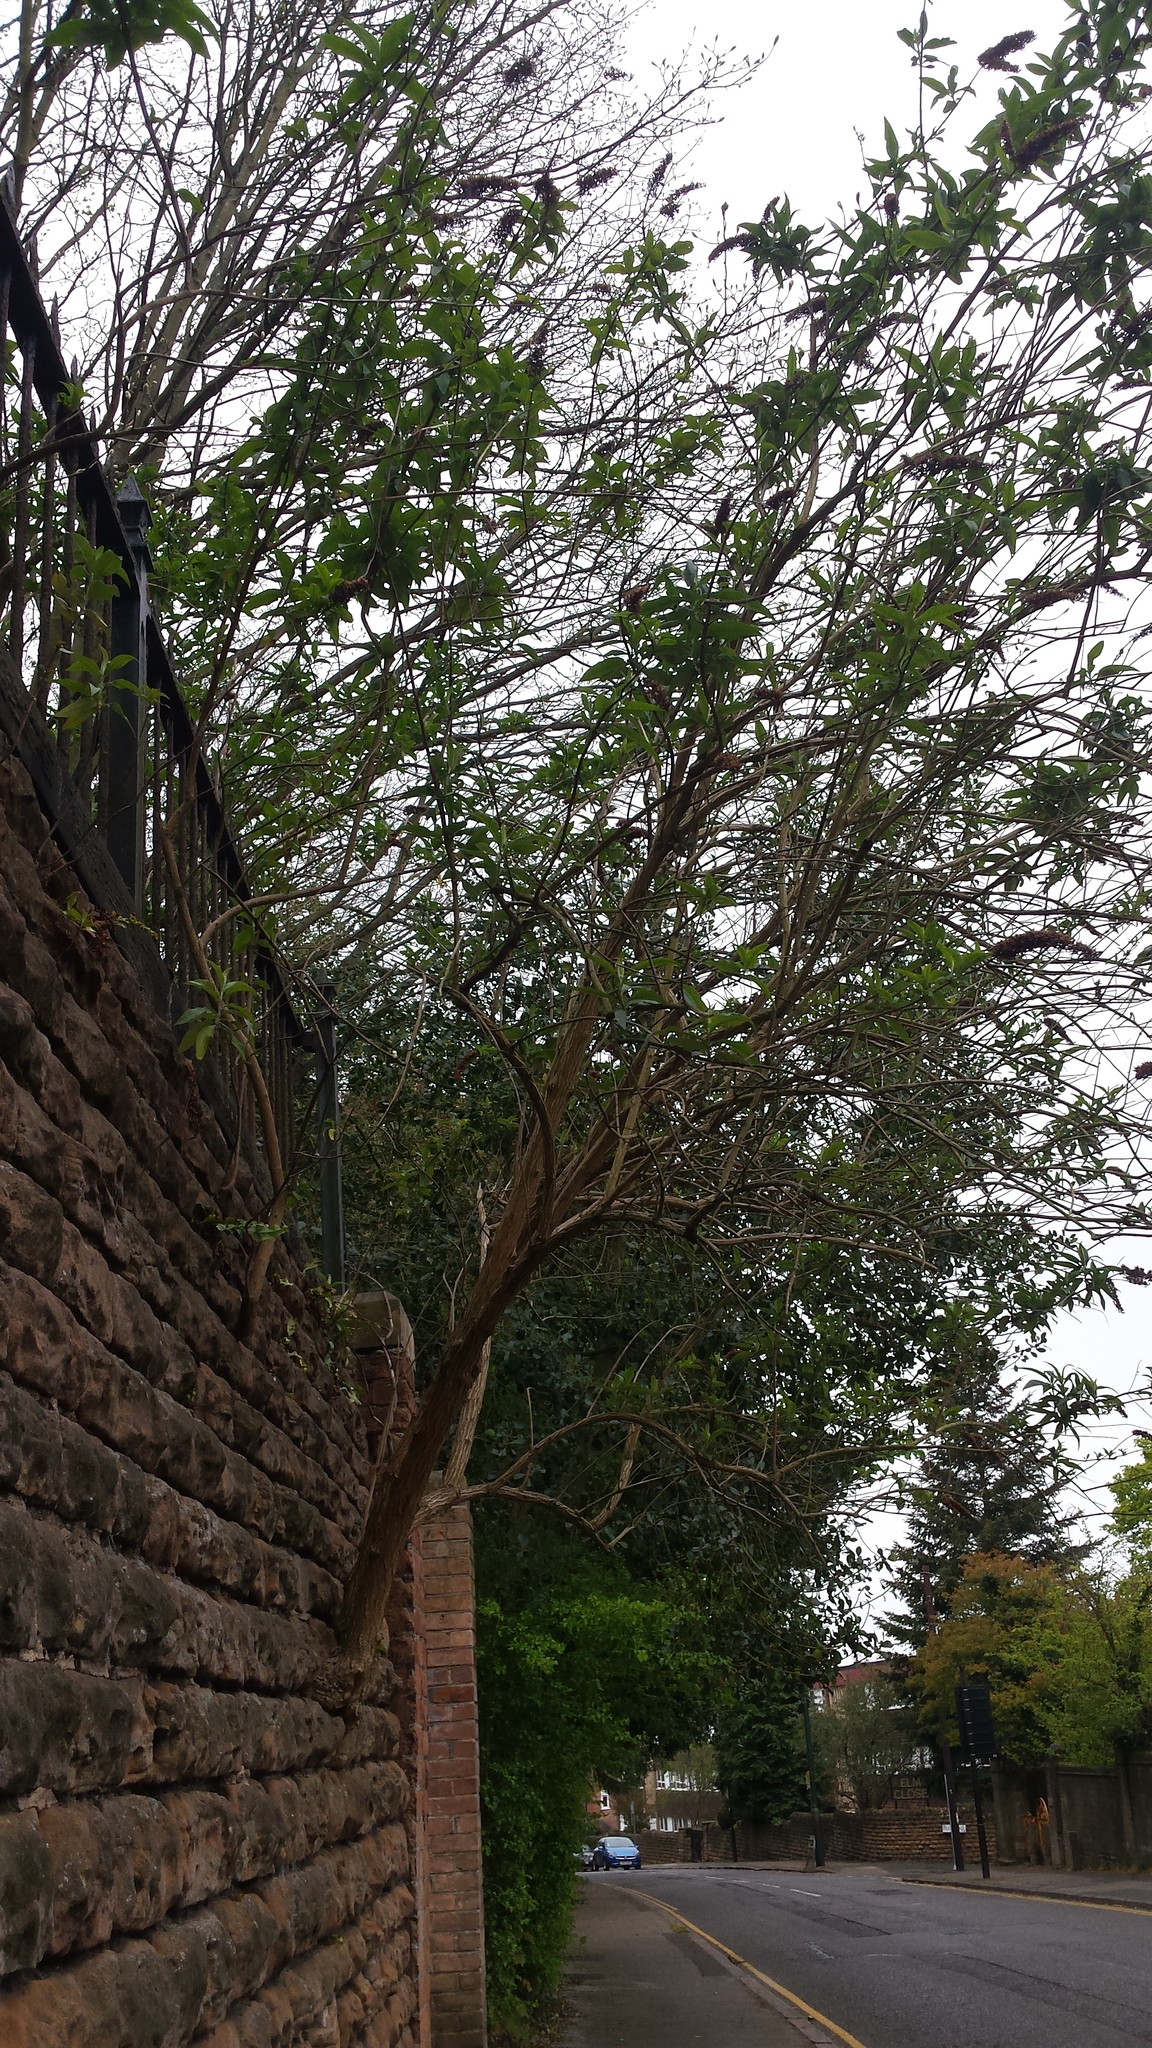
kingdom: Plantae
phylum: Tracheophyta
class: Magnoliopsida
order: Lamiales
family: Scrophulariaceae
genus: Buddleja
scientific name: Buddleja davidii
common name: Butterfly-bush
